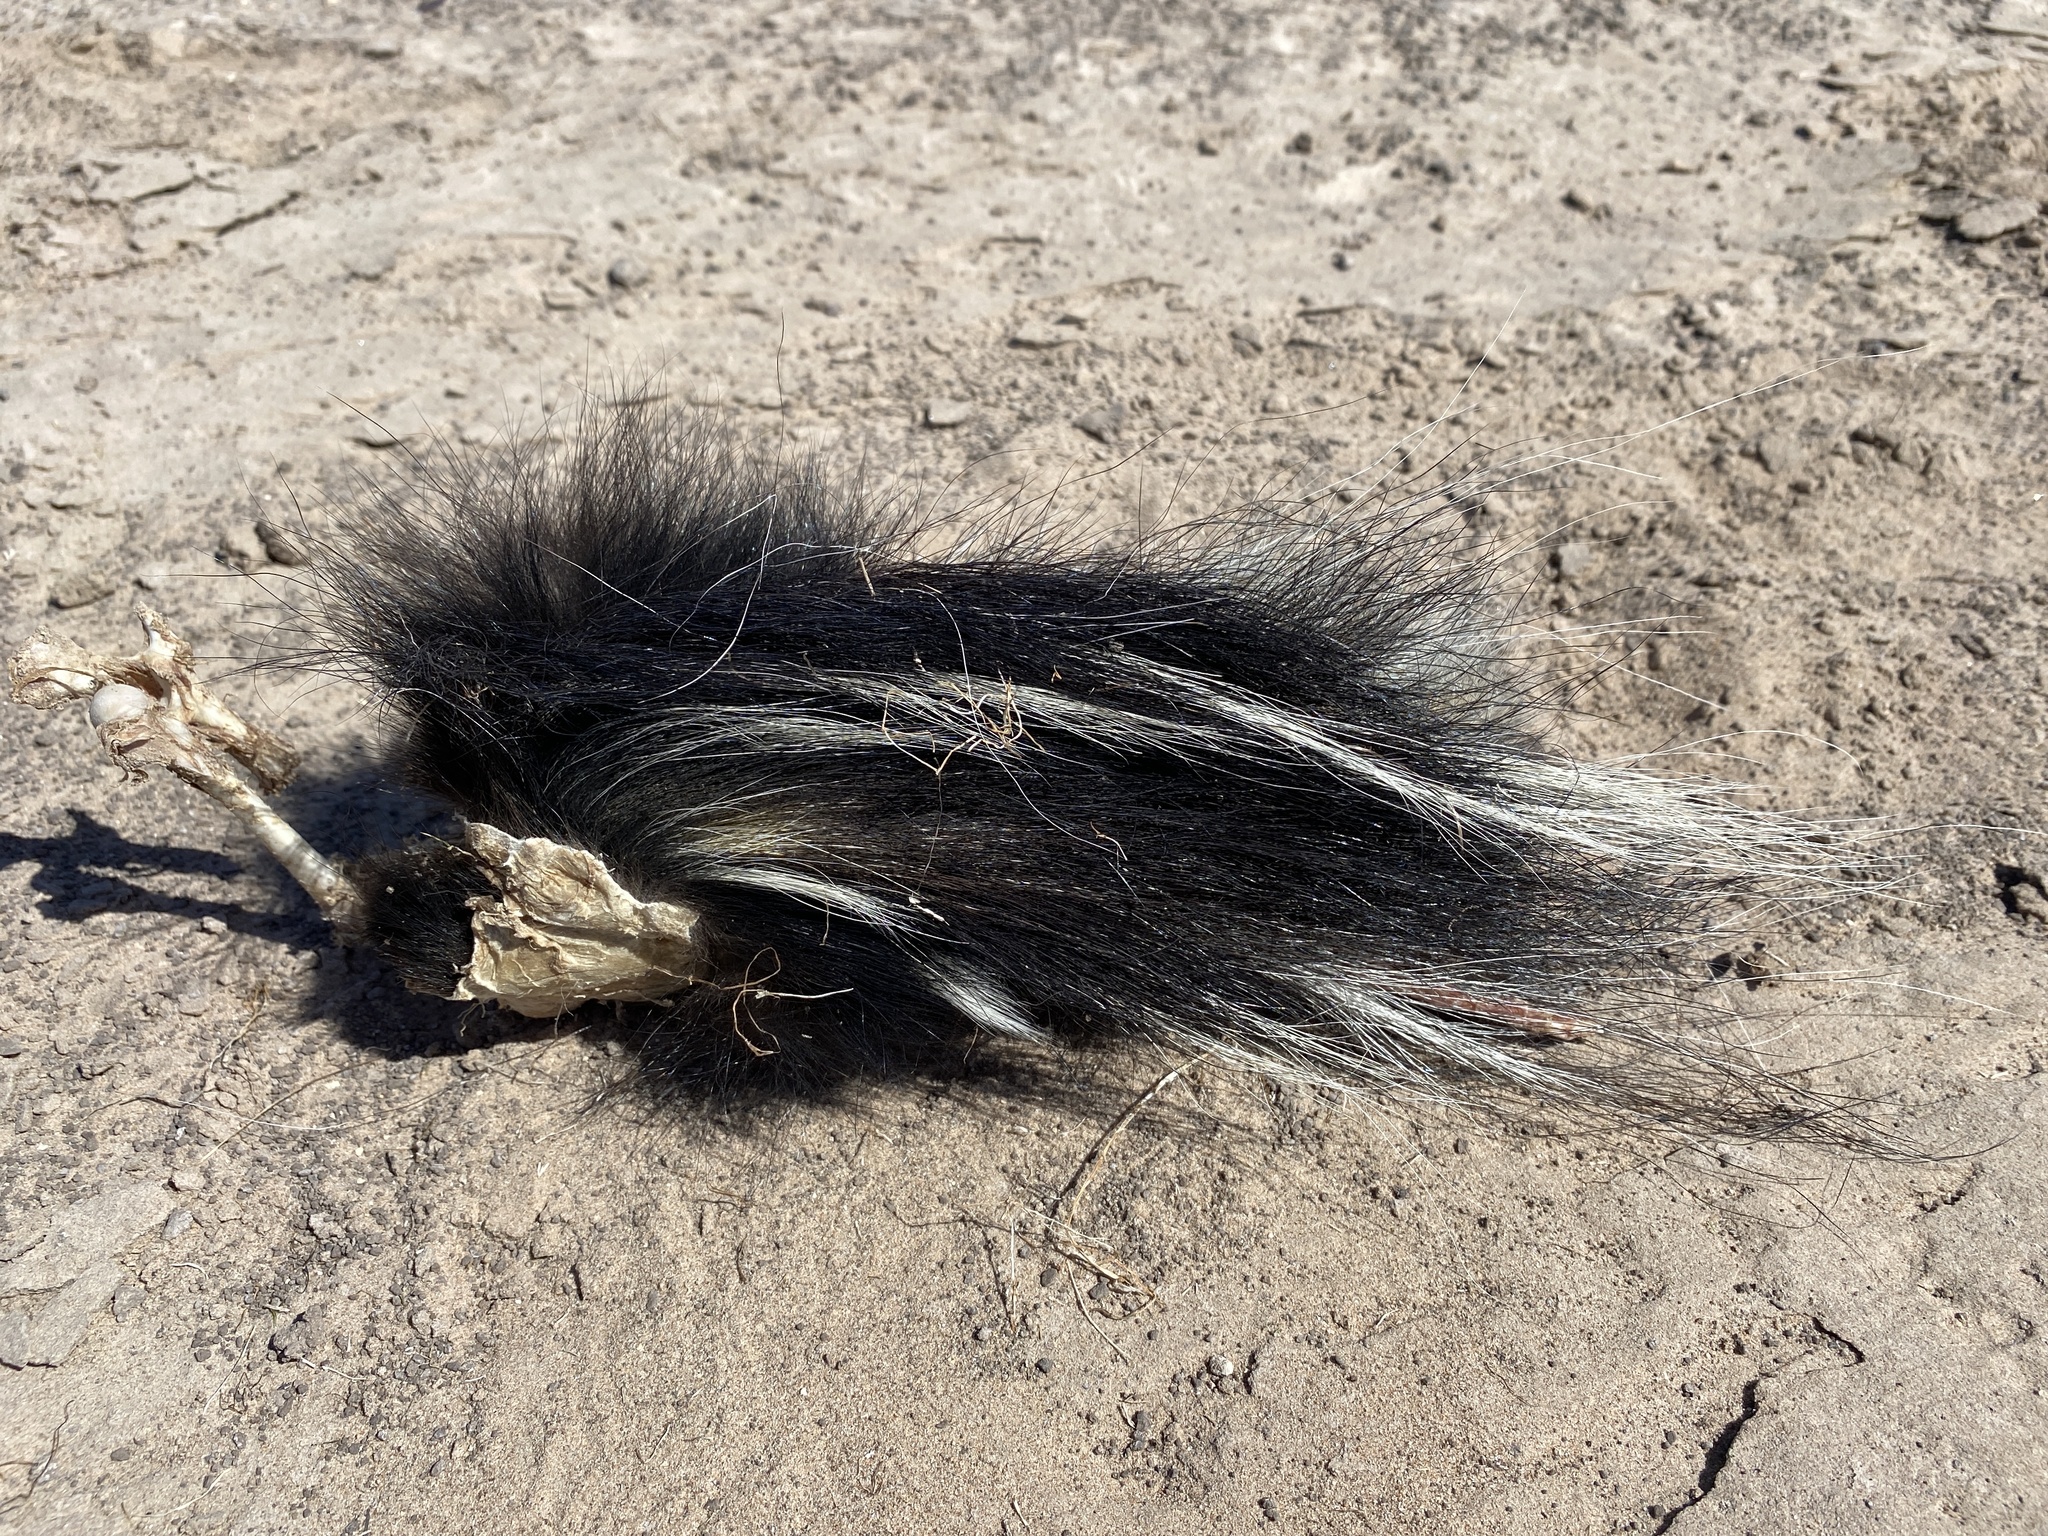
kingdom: Animalia
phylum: Chordata
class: Mammalia
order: Carnivora
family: Mephitidae
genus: Mephitis
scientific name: Mephitis mephitis
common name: Striped skunk
